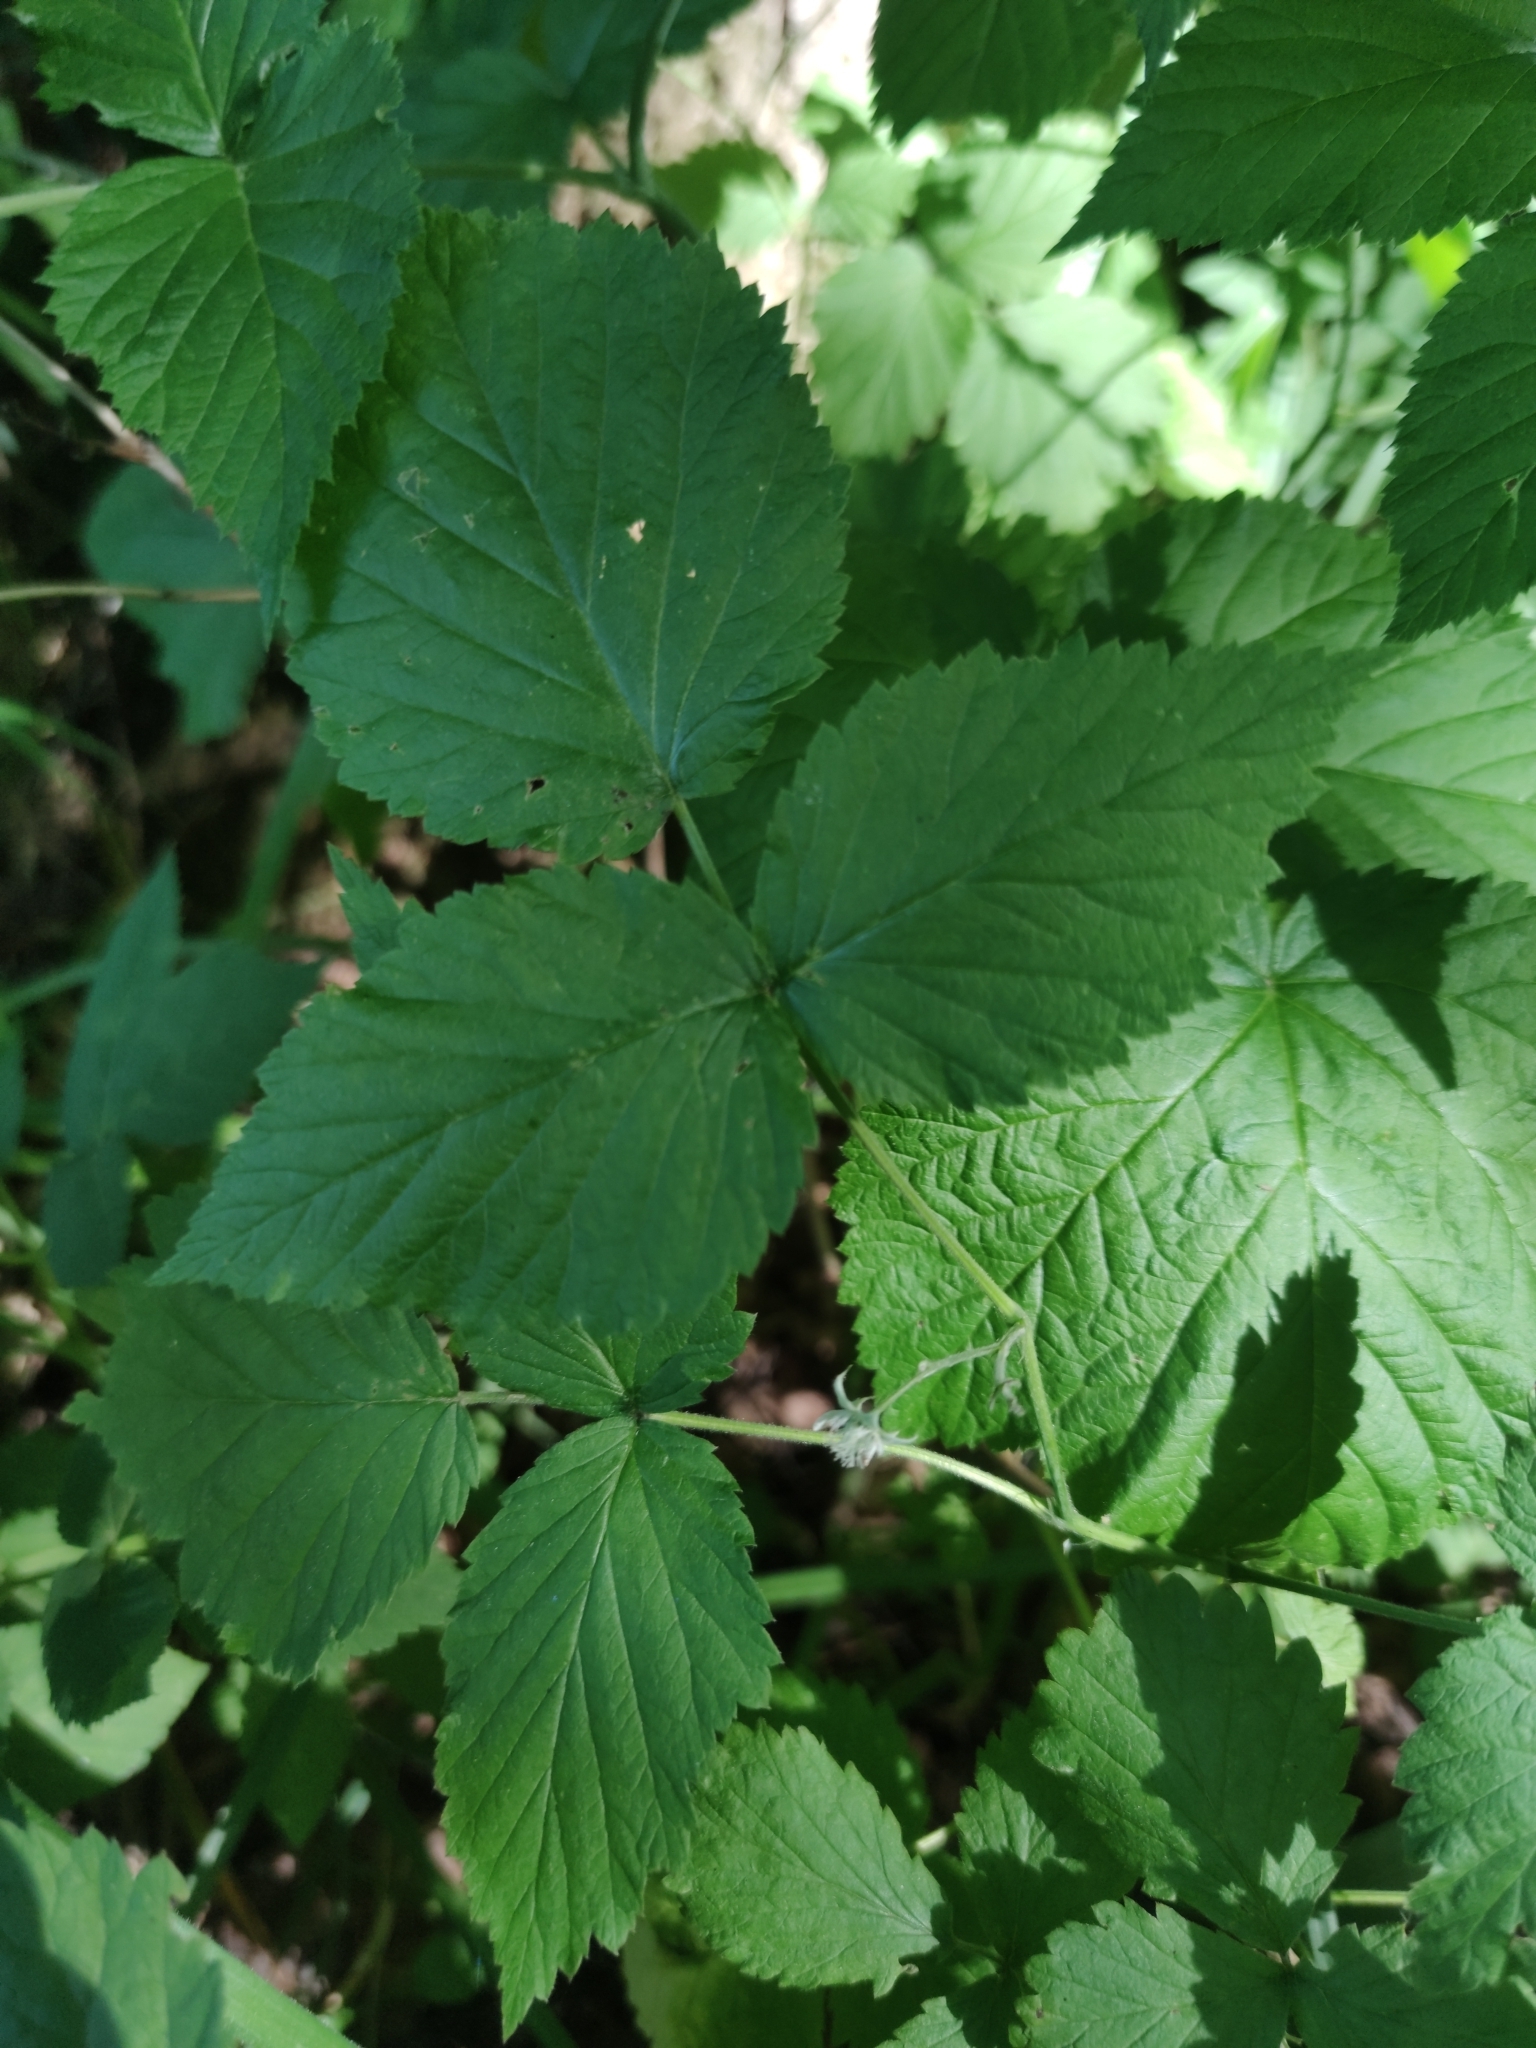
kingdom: Plantae
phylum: Tracheophyta
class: Magnoliopsida
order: Rosales
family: Rosaceae
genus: Rubus
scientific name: Rubus idaeus
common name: Raspberry
